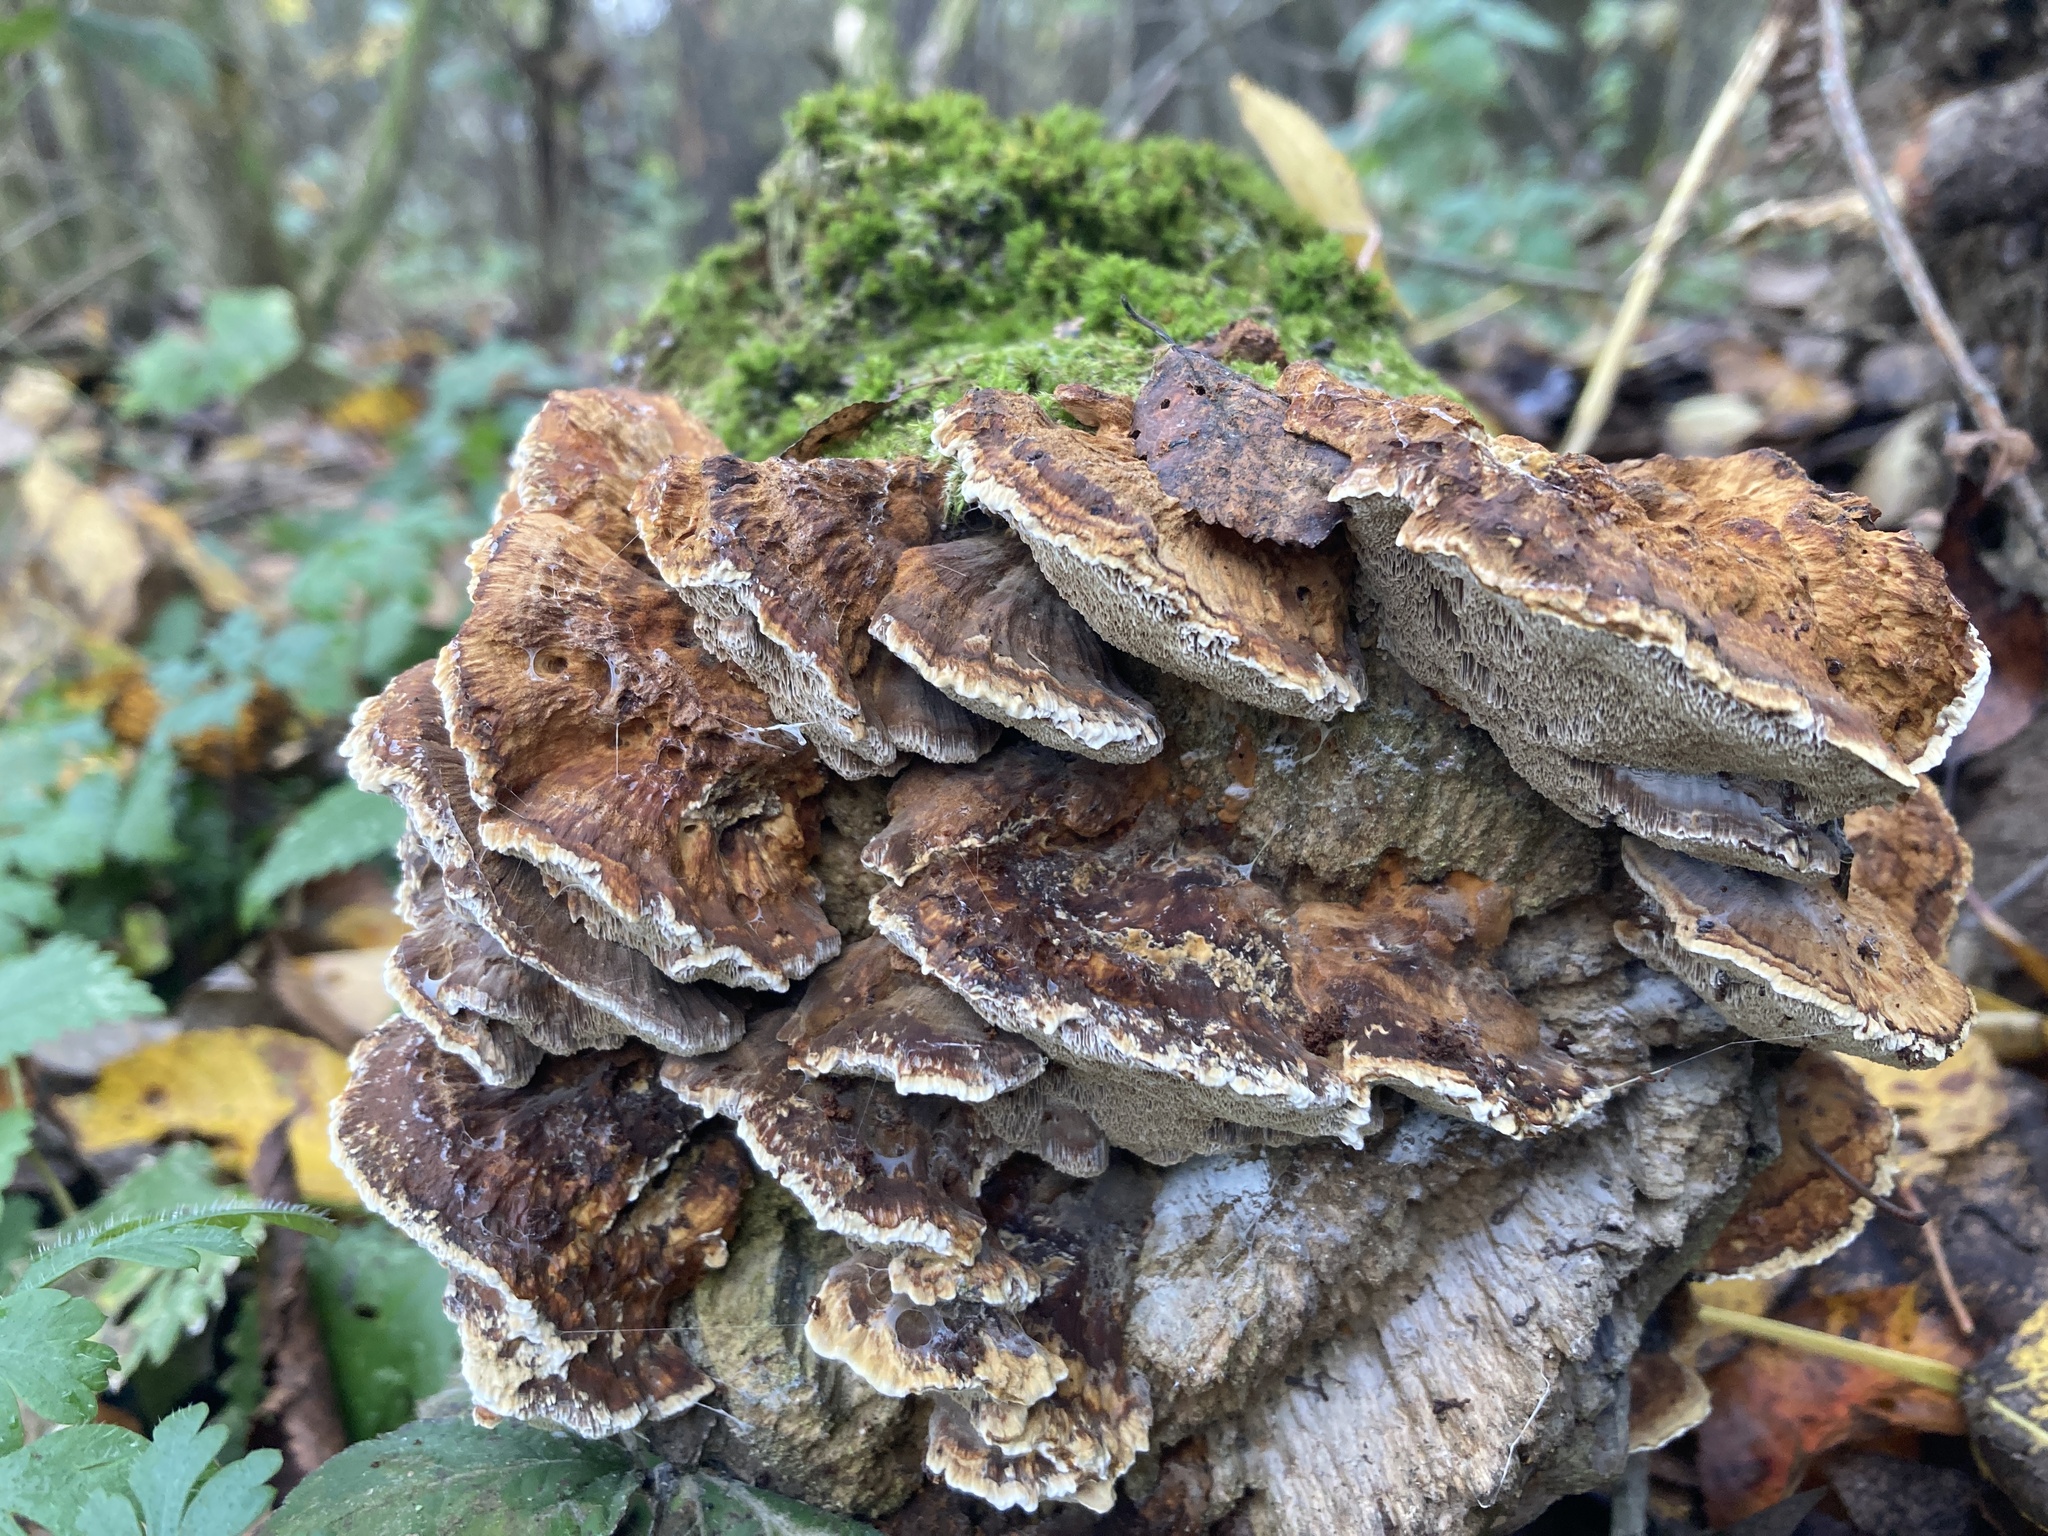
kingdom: Fungi
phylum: Basidiomycota
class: Agaricomycetes
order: Hymenochaetales
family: Hymenochaetaceae
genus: Xanthoporia
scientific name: Xanthoporia radiata
